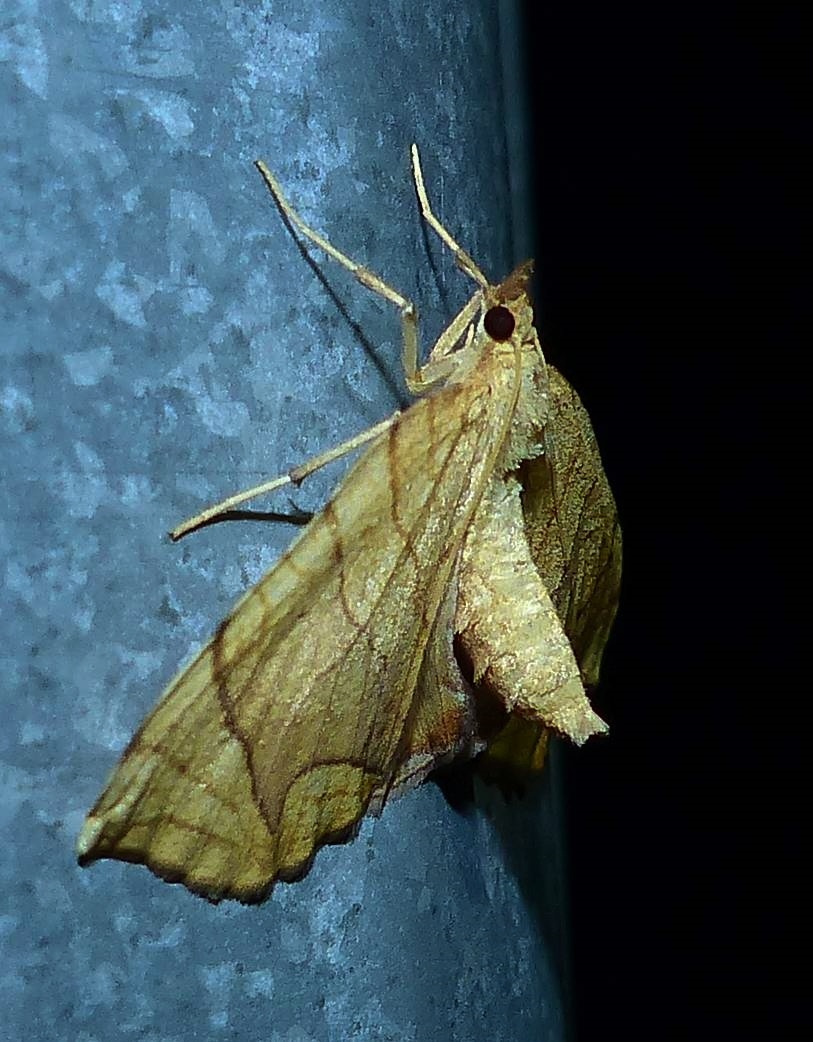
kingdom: Animalia
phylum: Arthropoda
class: Insecta
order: Lepidoptera
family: Geometridae
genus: Eulithis
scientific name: Eulithis
